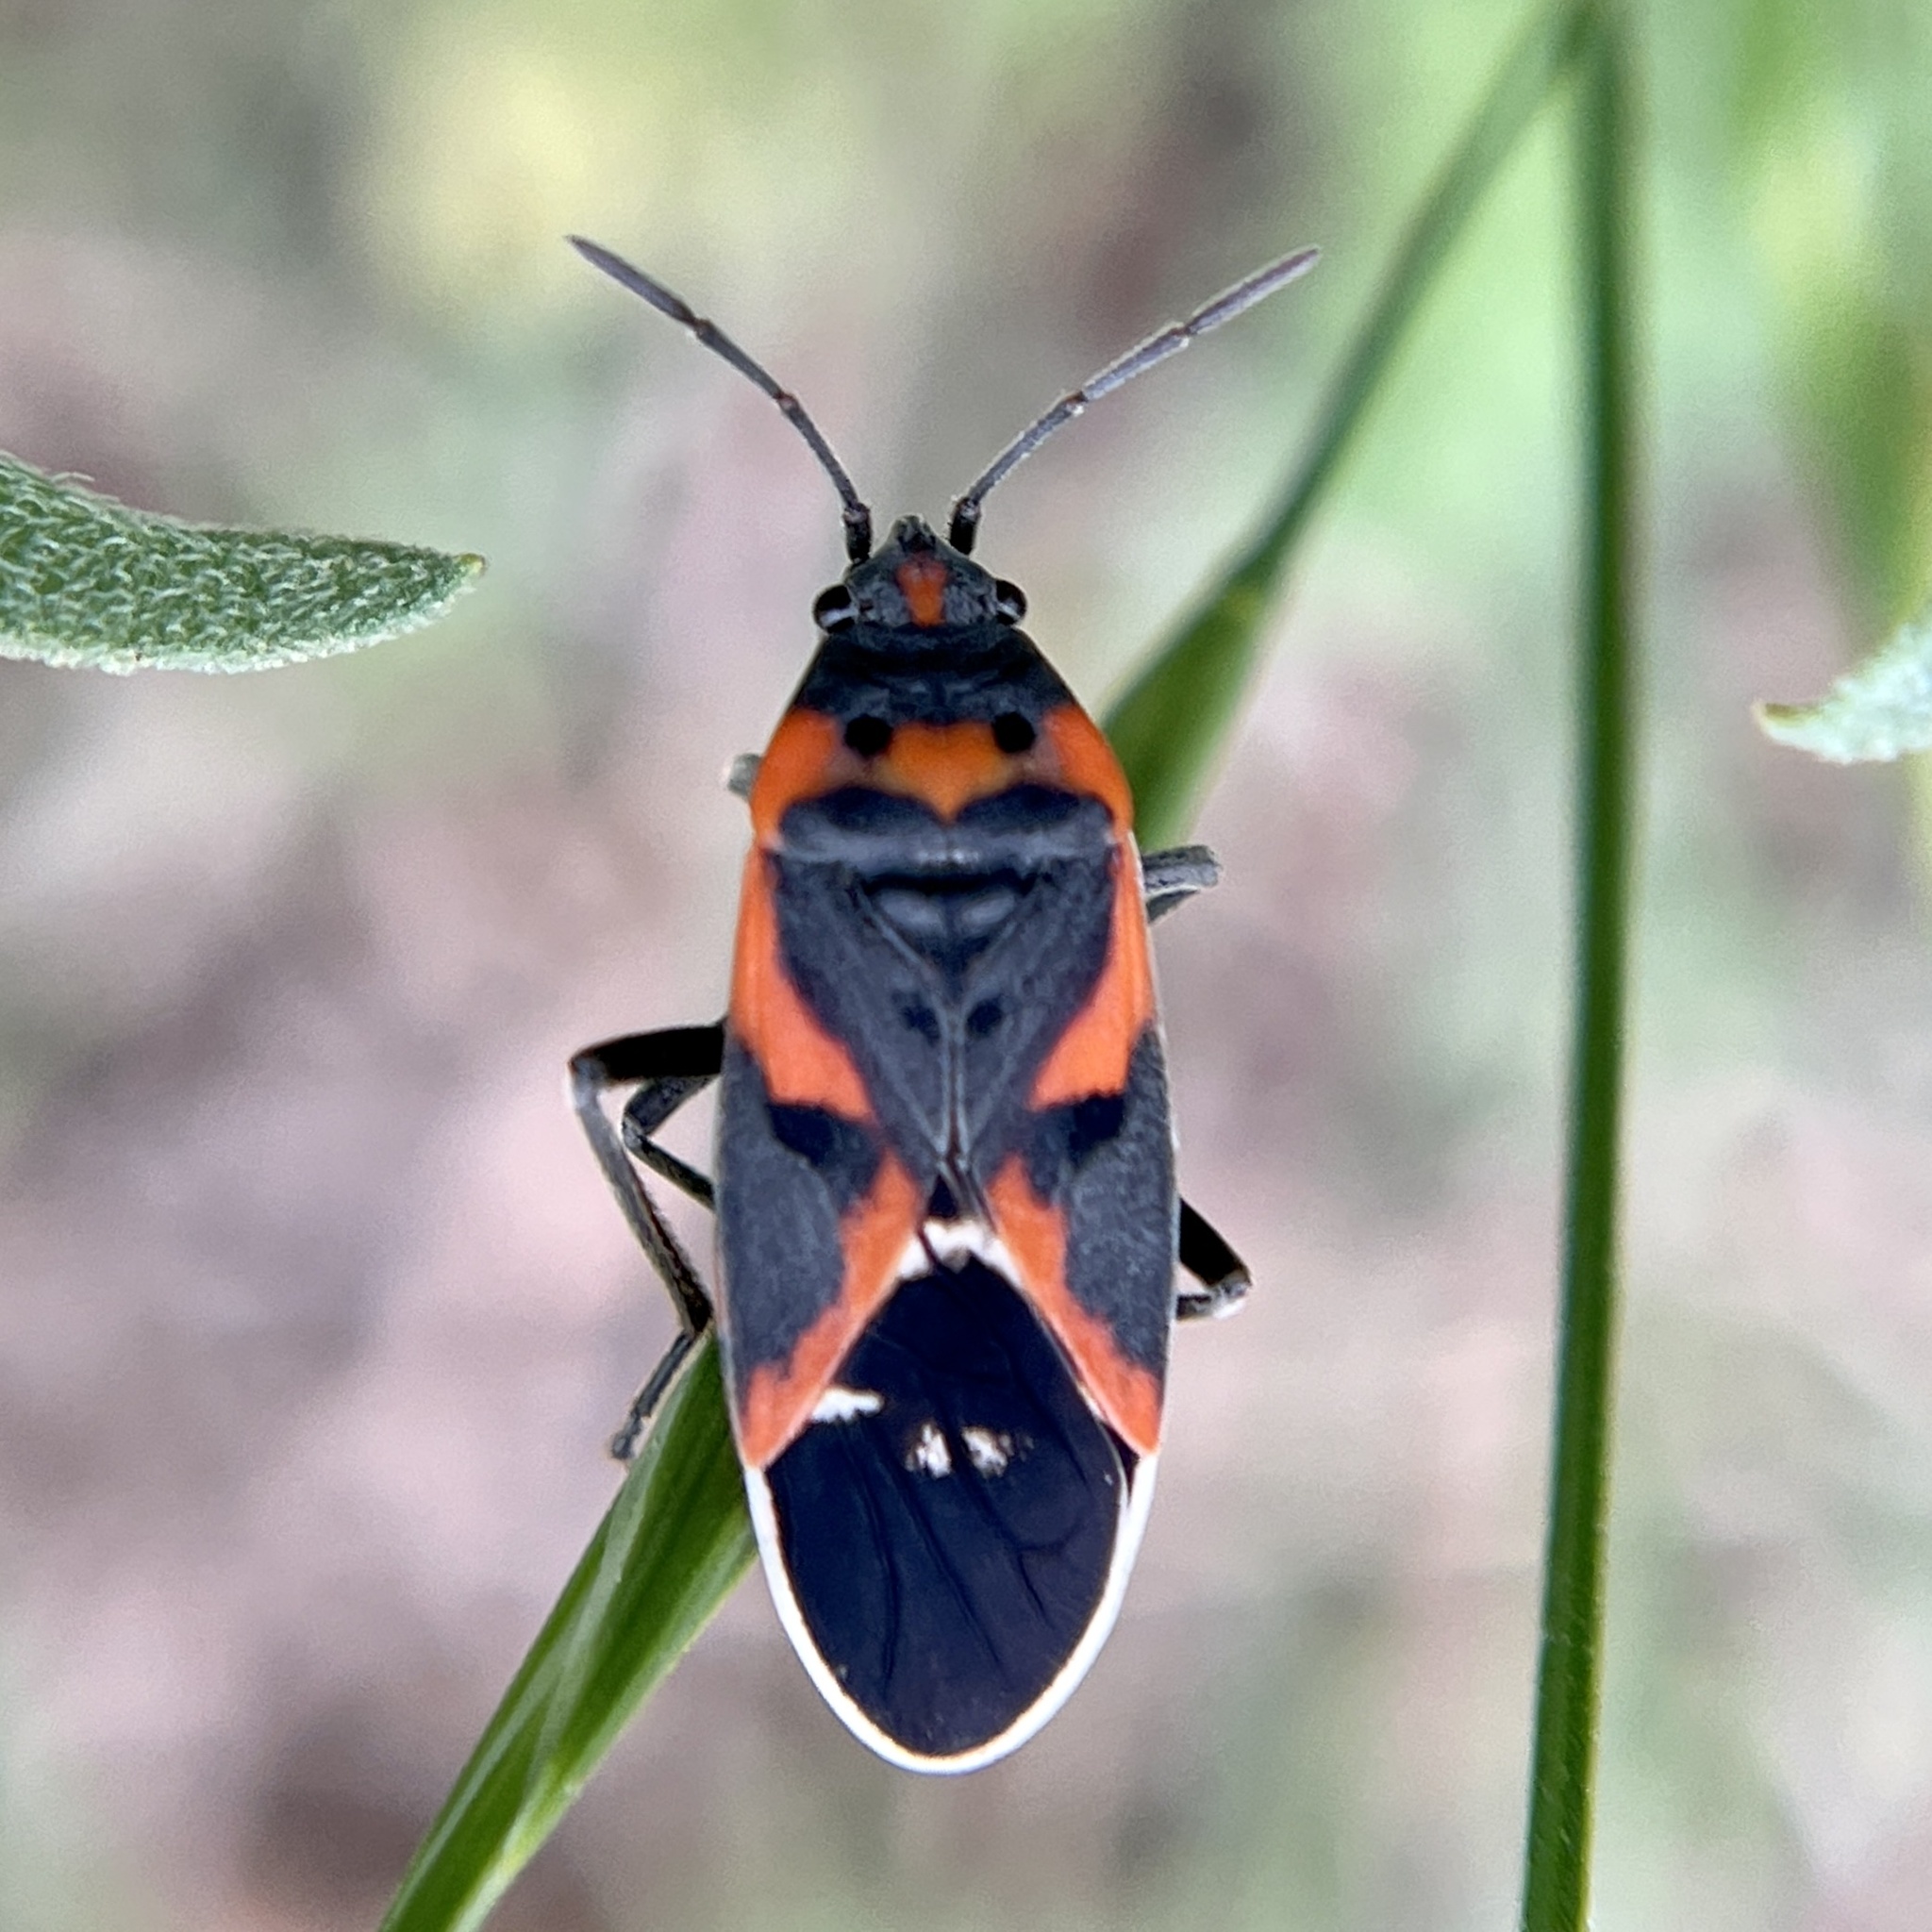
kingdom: Animalia
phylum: Arthropoda
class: Insecta
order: Hemiptera
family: Lygaeidae
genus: Lygaeus
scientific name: Lygaeus kalmii
